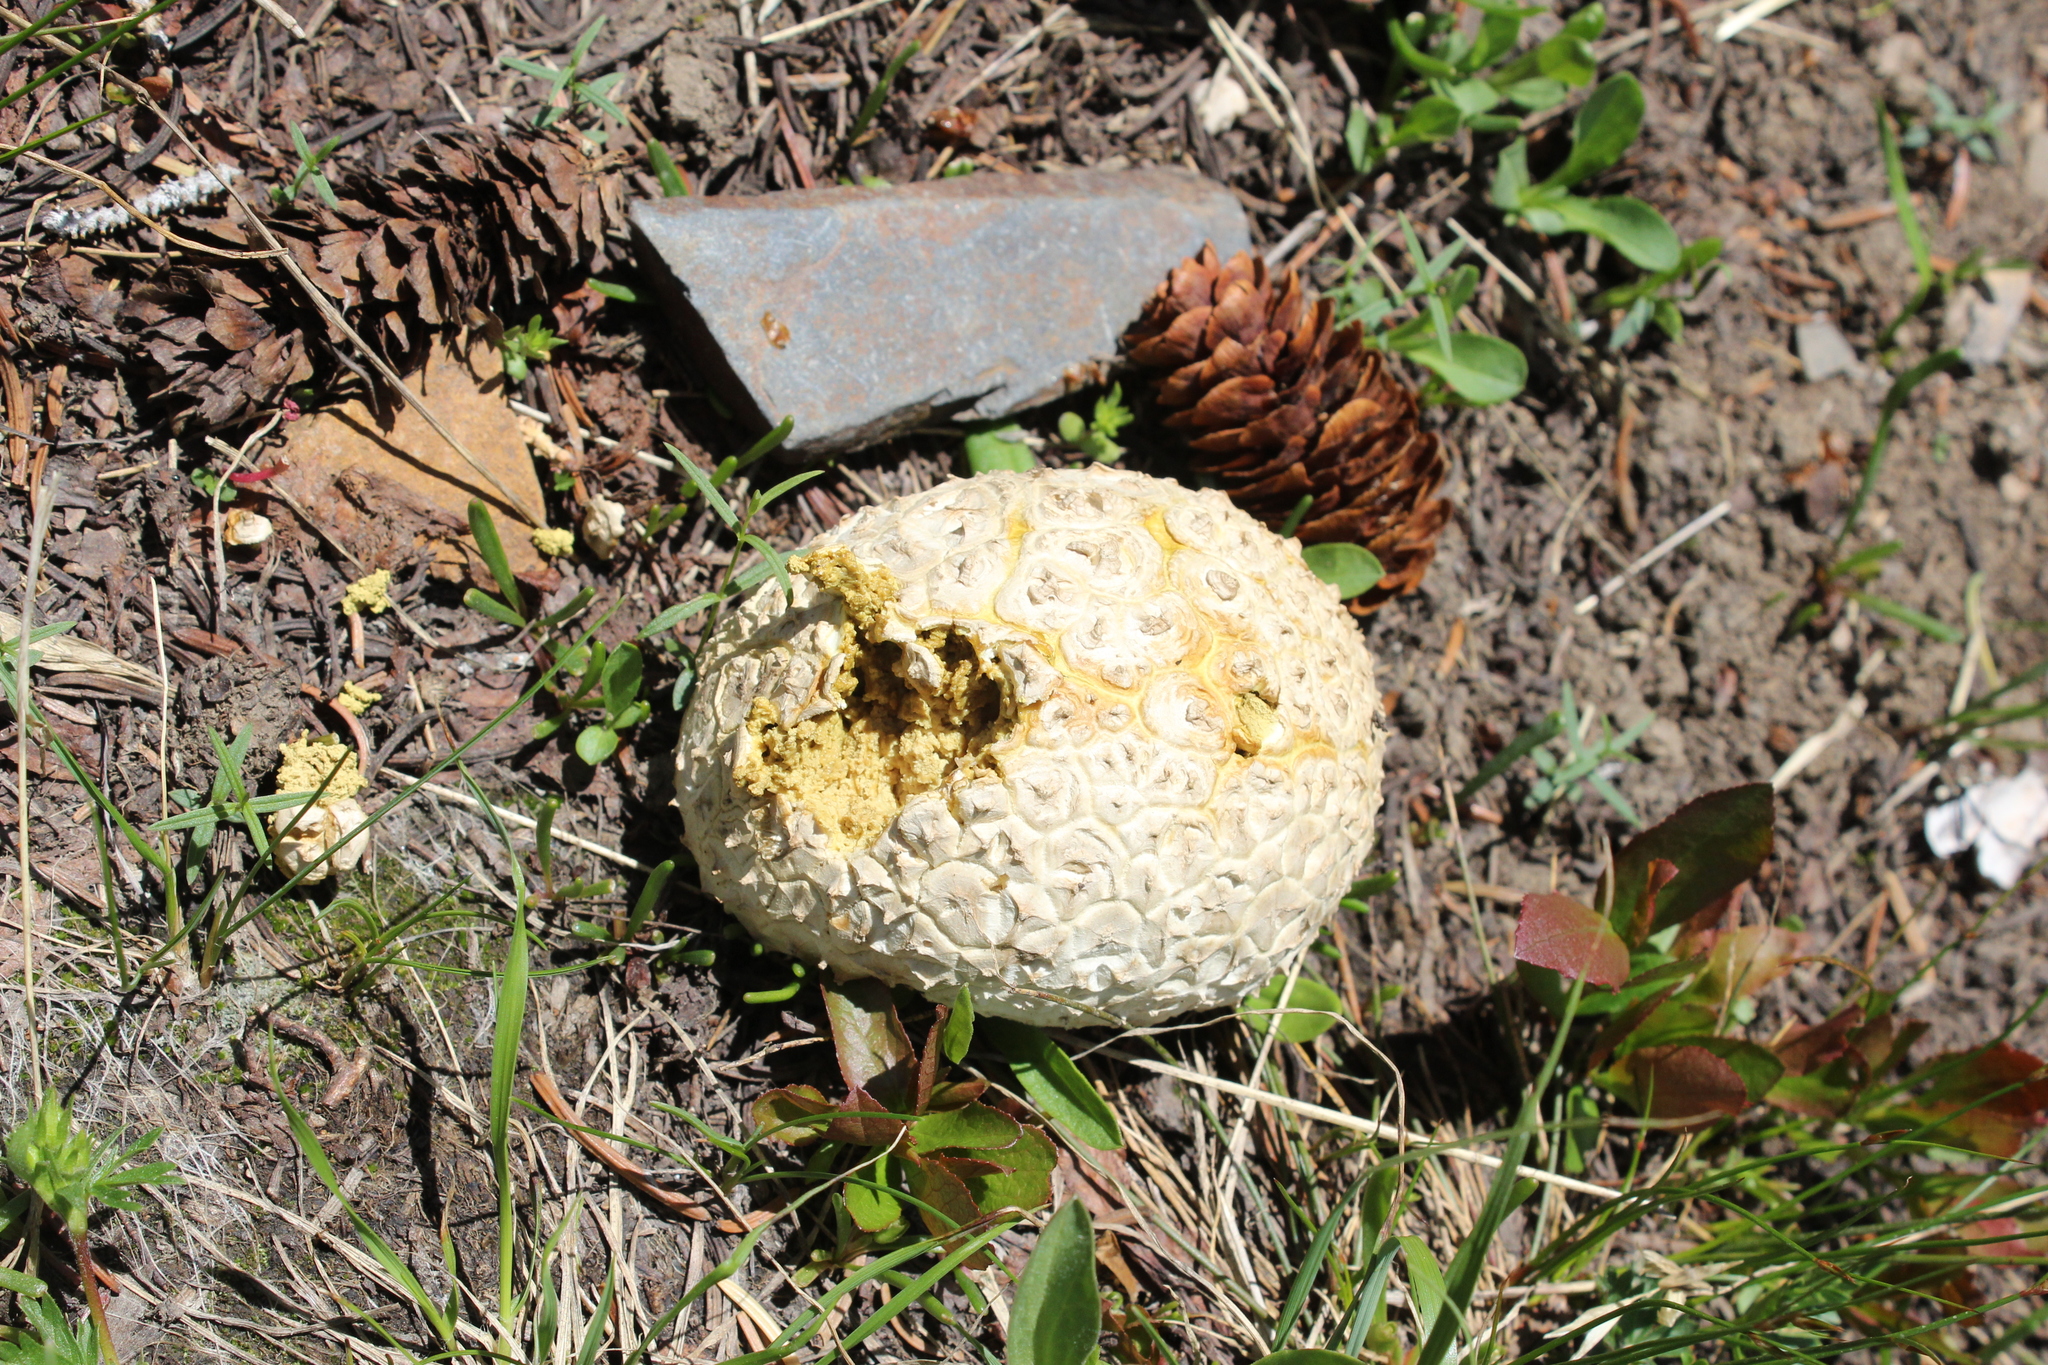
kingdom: Fungi
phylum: Basidiomycota
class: Agaricomycetes
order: Agaricales
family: Lycoperdaceae
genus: Calvatia
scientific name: Calvatia booniana
